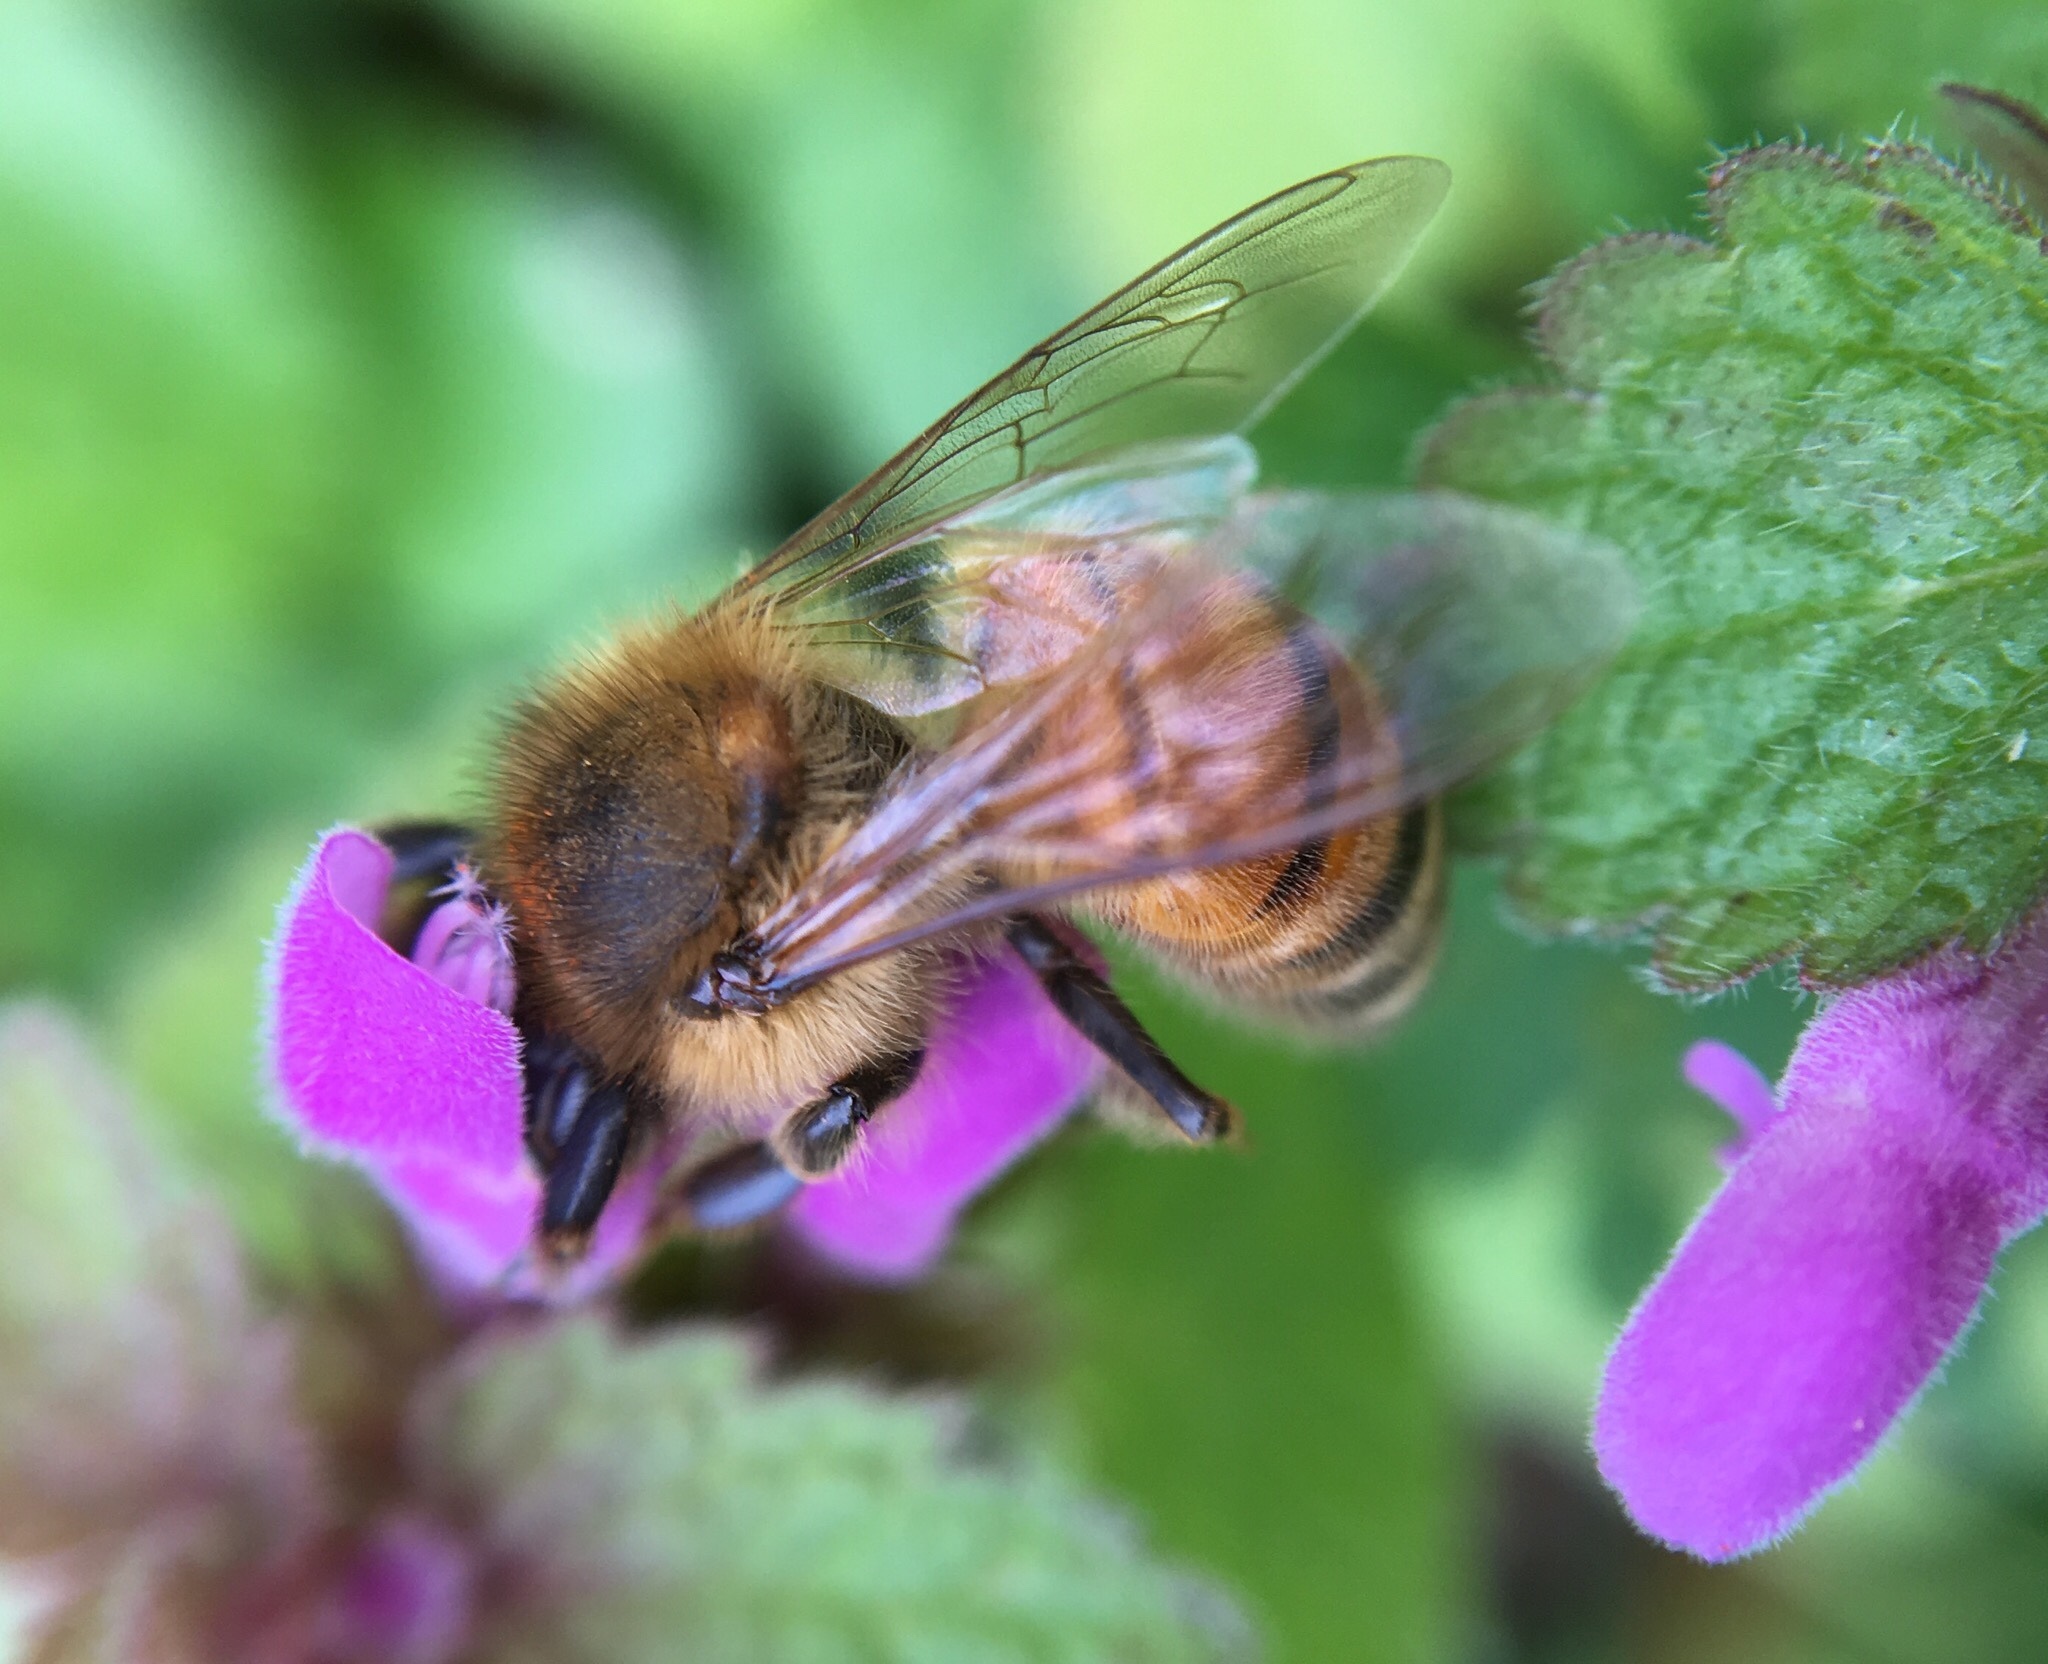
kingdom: Animalia
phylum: Arthropoda
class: Insecta
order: Hymenoptera
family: Apidae
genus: Apis
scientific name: Apis mellifera
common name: Honey bee
